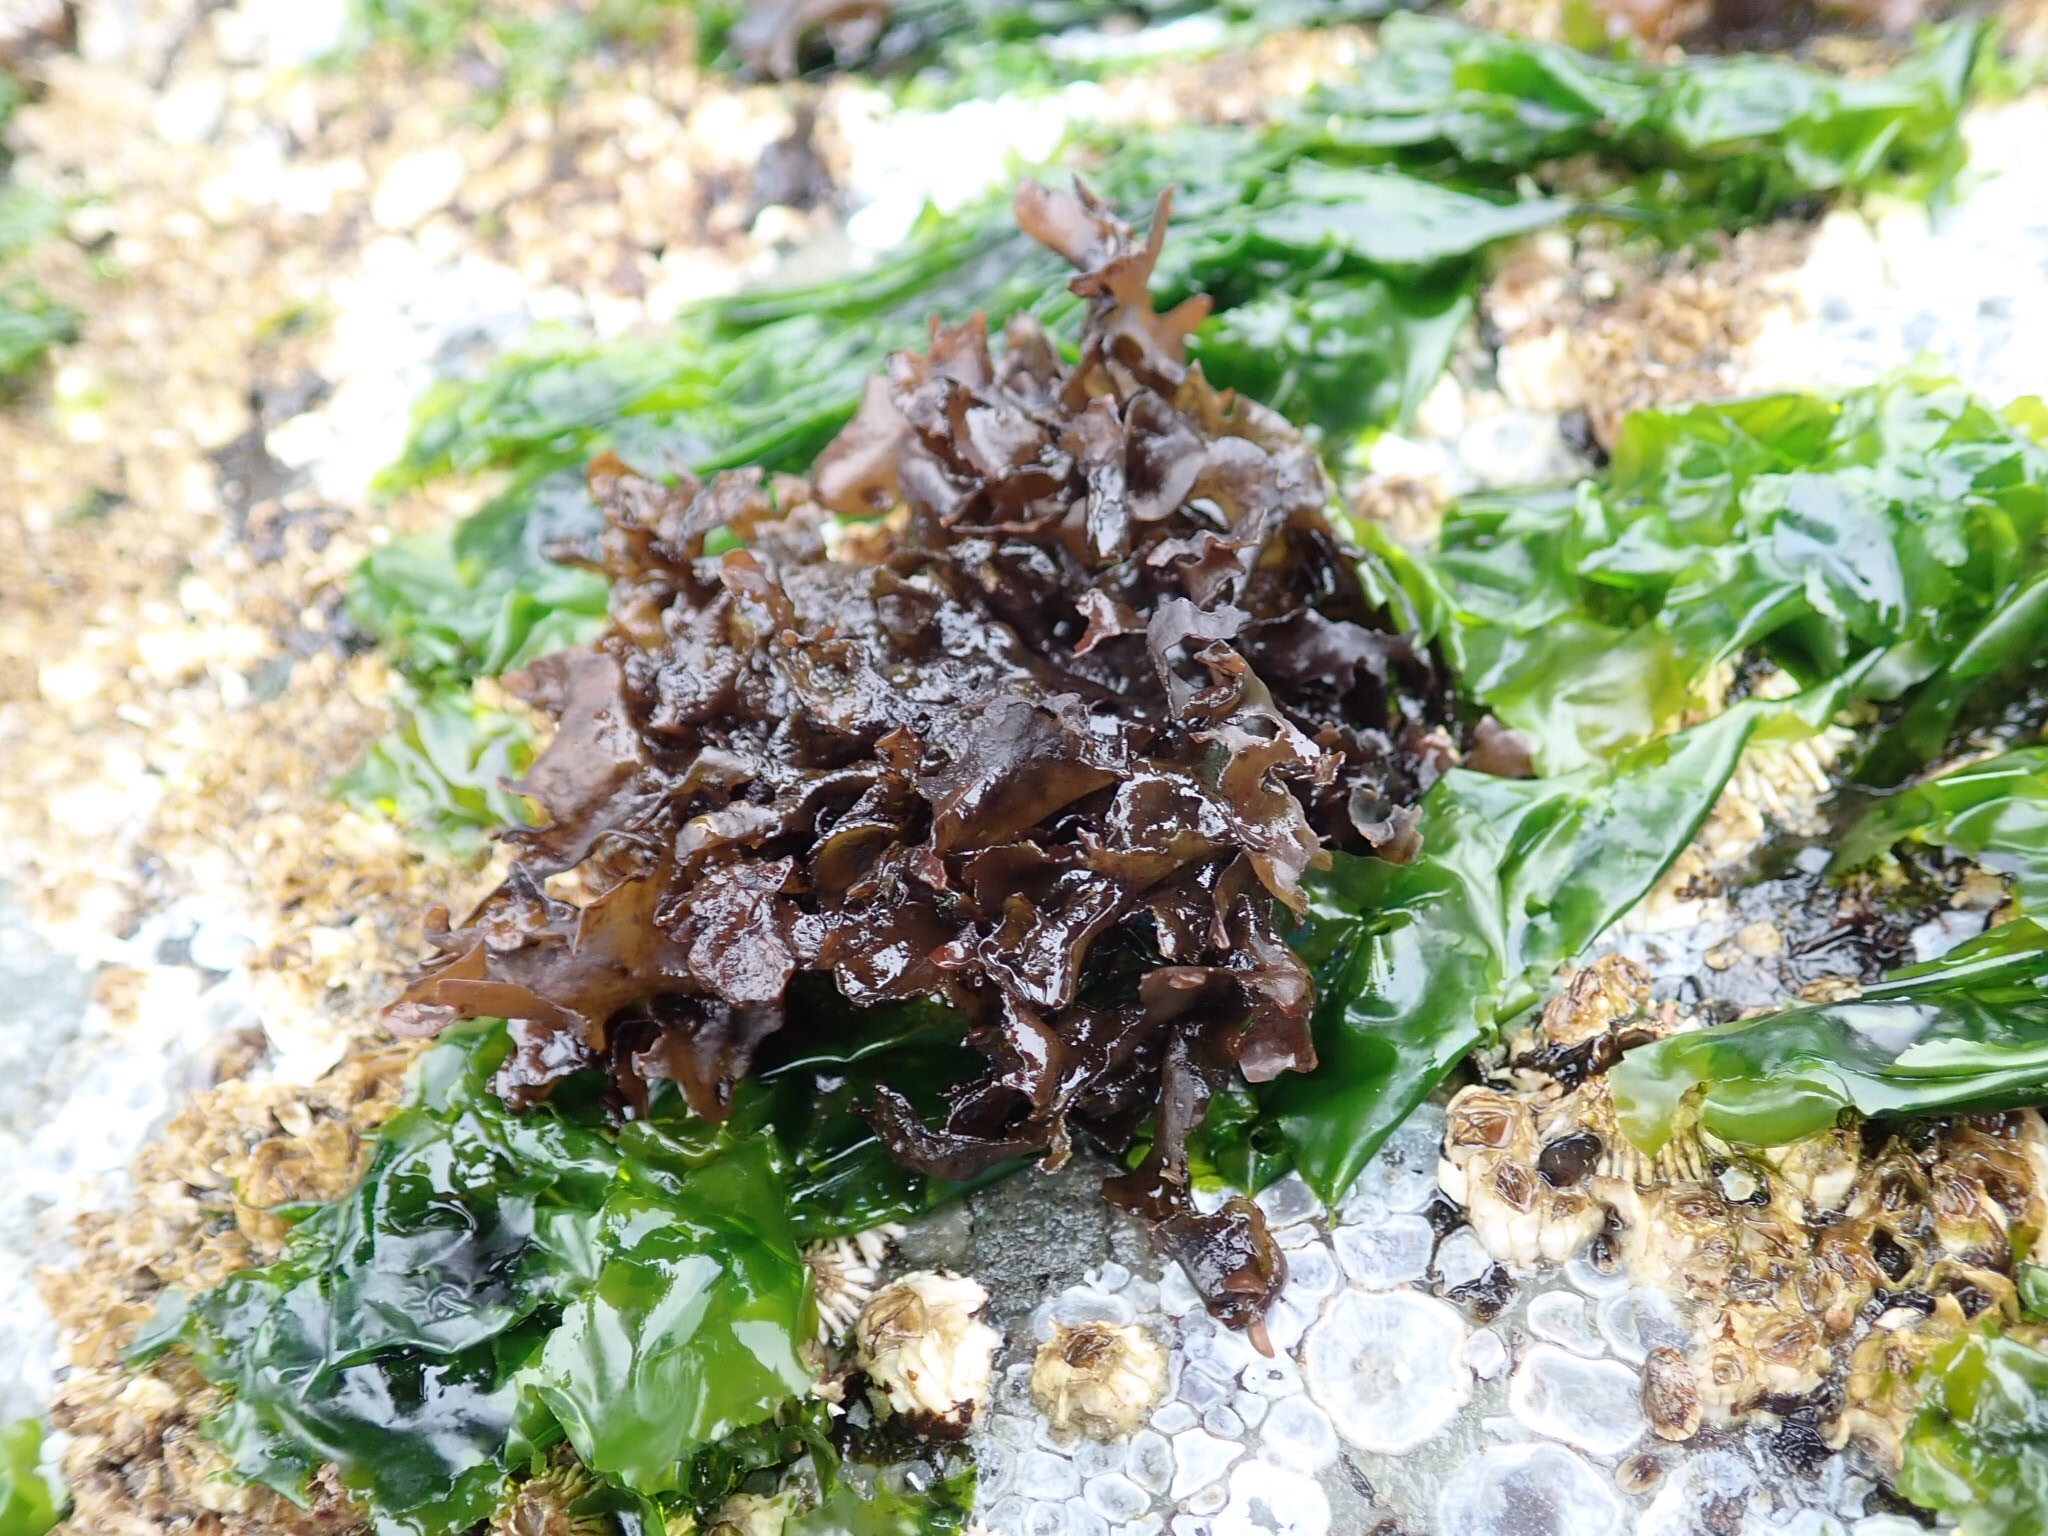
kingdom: Plantae
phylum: Rhodophyta
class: Florideophyceae
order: Gigartinales
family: Phyllophoraceae
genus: Mastocarpus
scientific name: Mastocarpus papillatus
